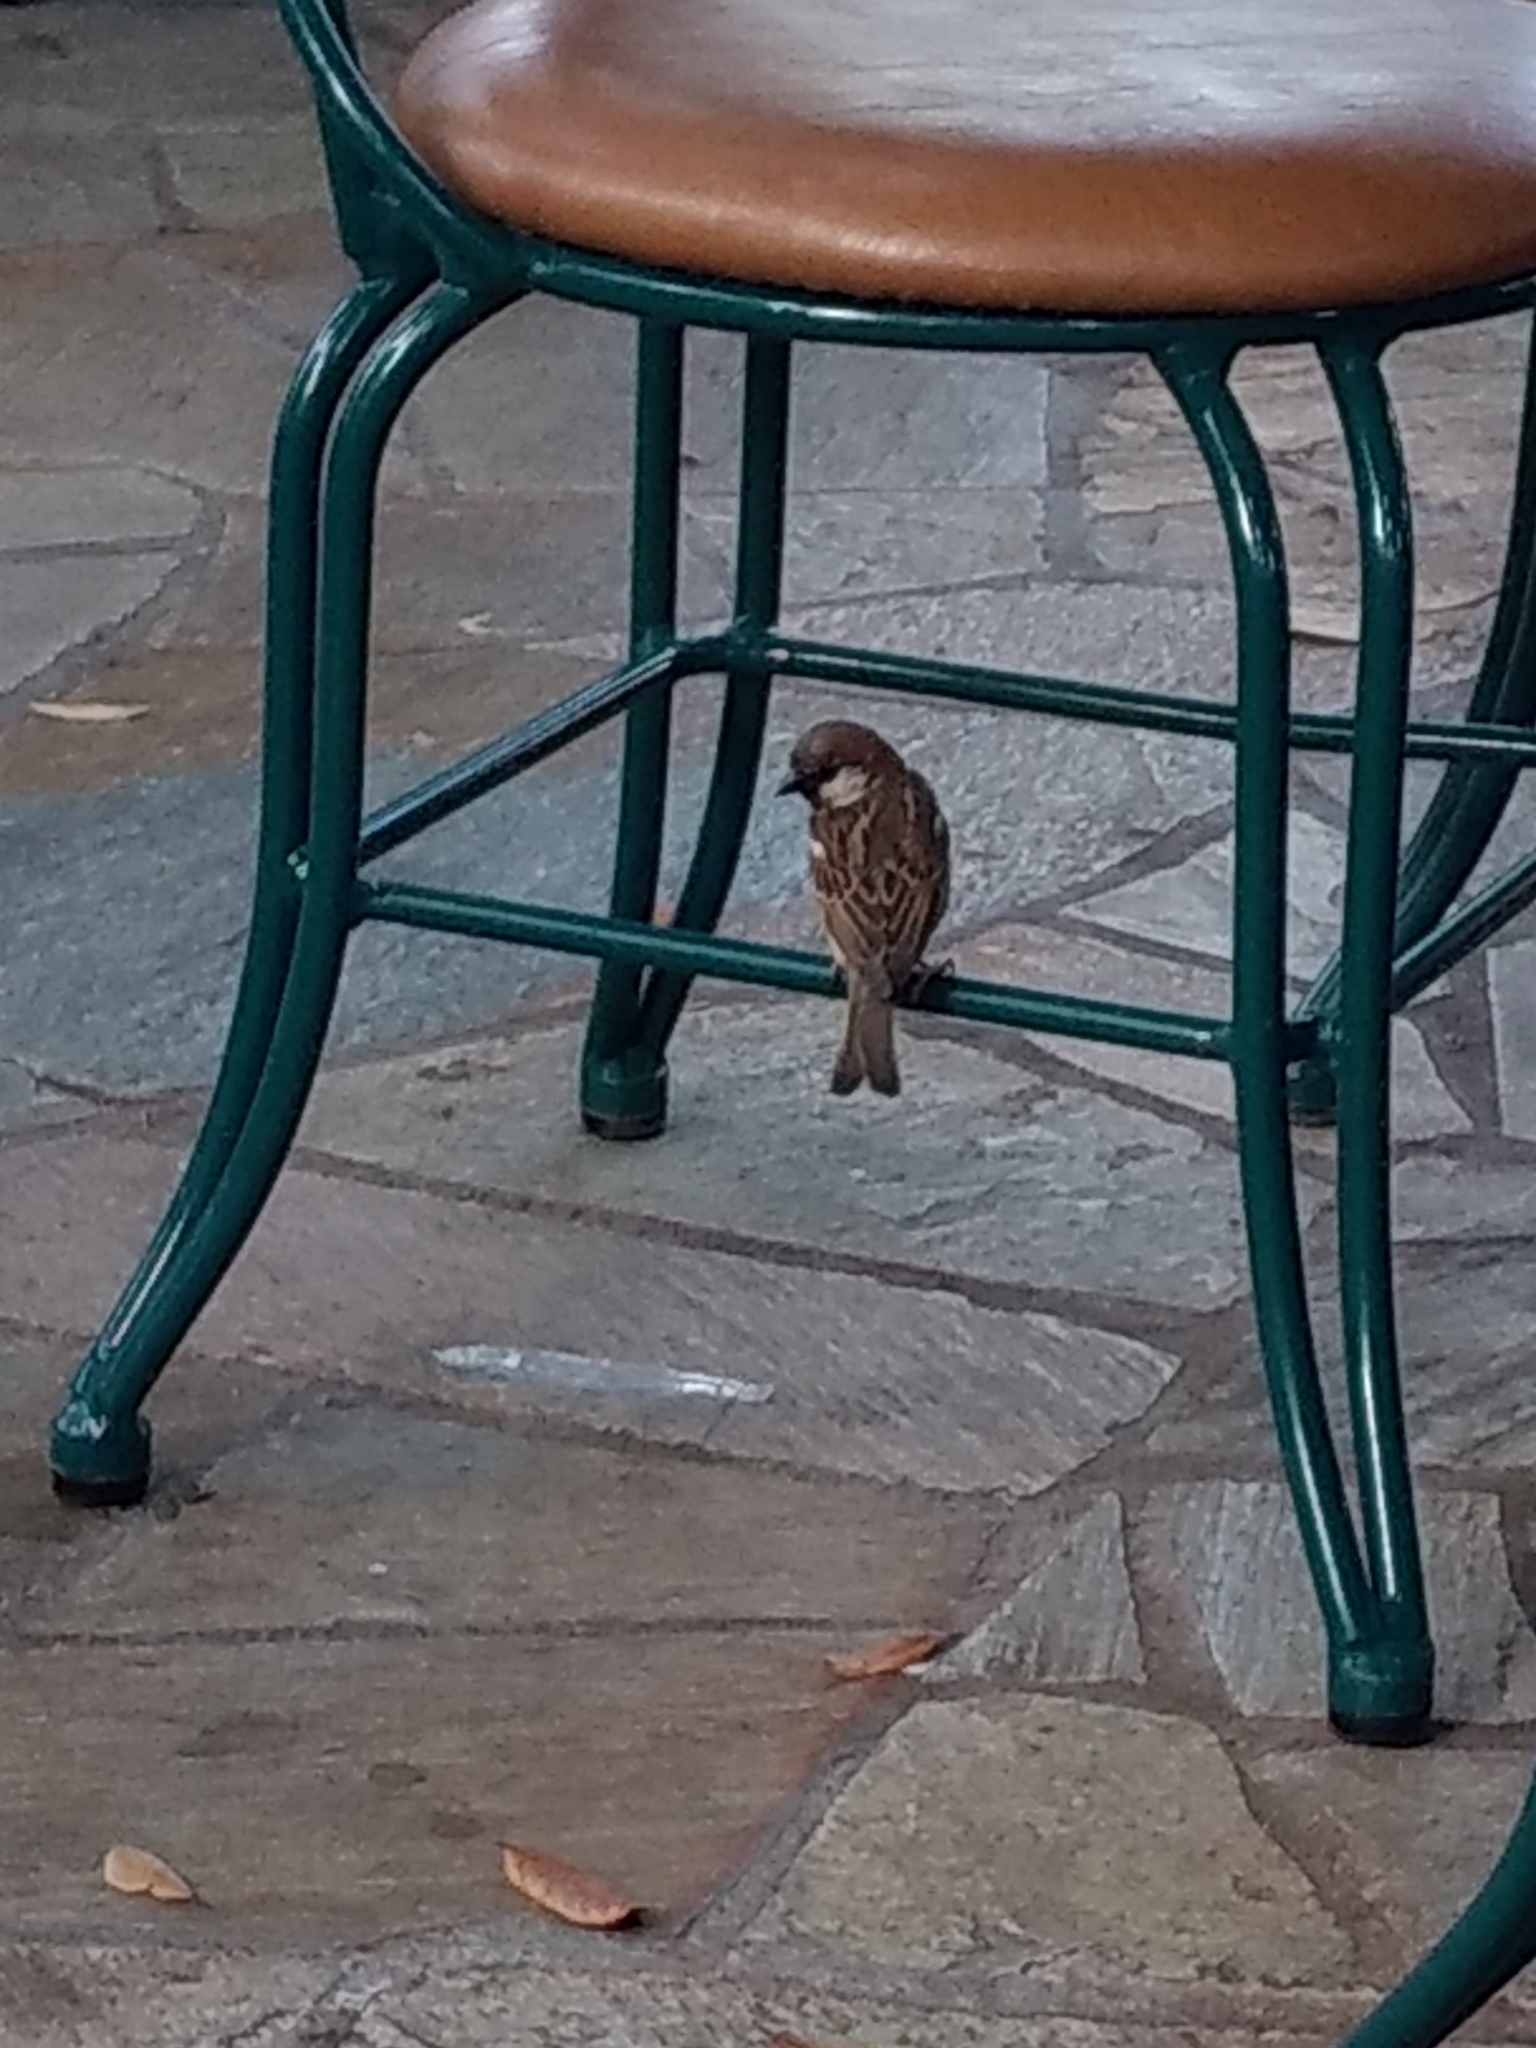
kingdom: Animalia
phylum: Chordata
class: Aves
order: Passeriformes
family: Passeridae
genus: Passer
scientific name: Passer domesticus
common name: House sparrow
